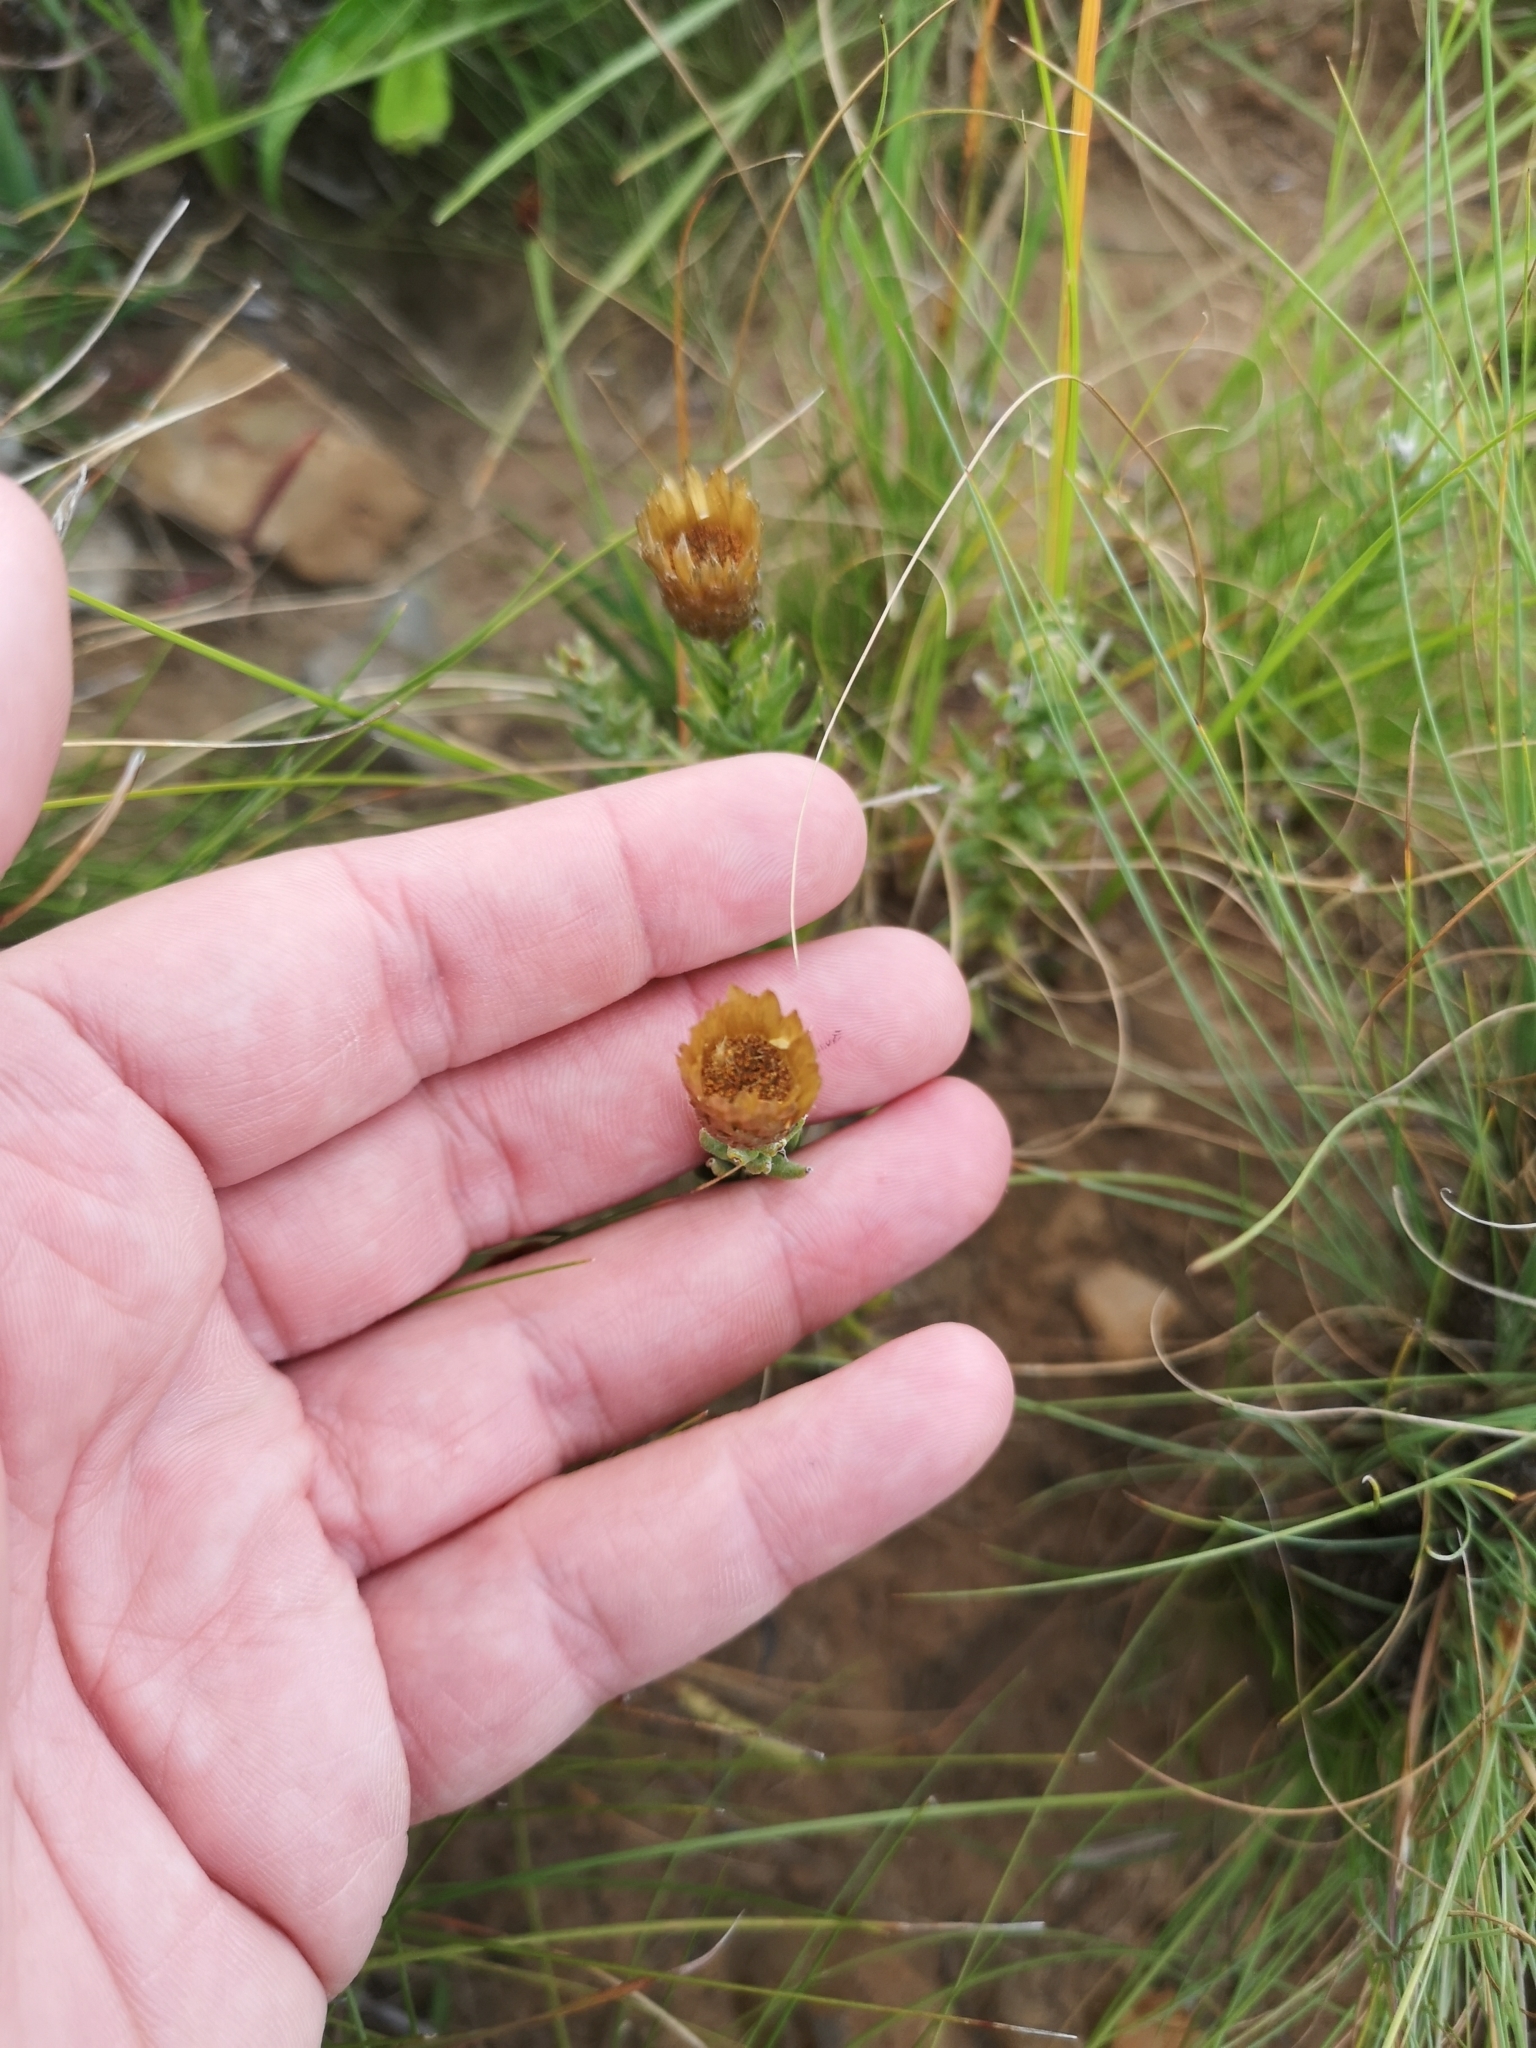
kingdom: Plantae
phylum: Tracheophyta
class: Magnoliopsida
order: Asterales
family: Asteraceae
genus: Helichrysum
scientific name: Helichrysum herbaceum
